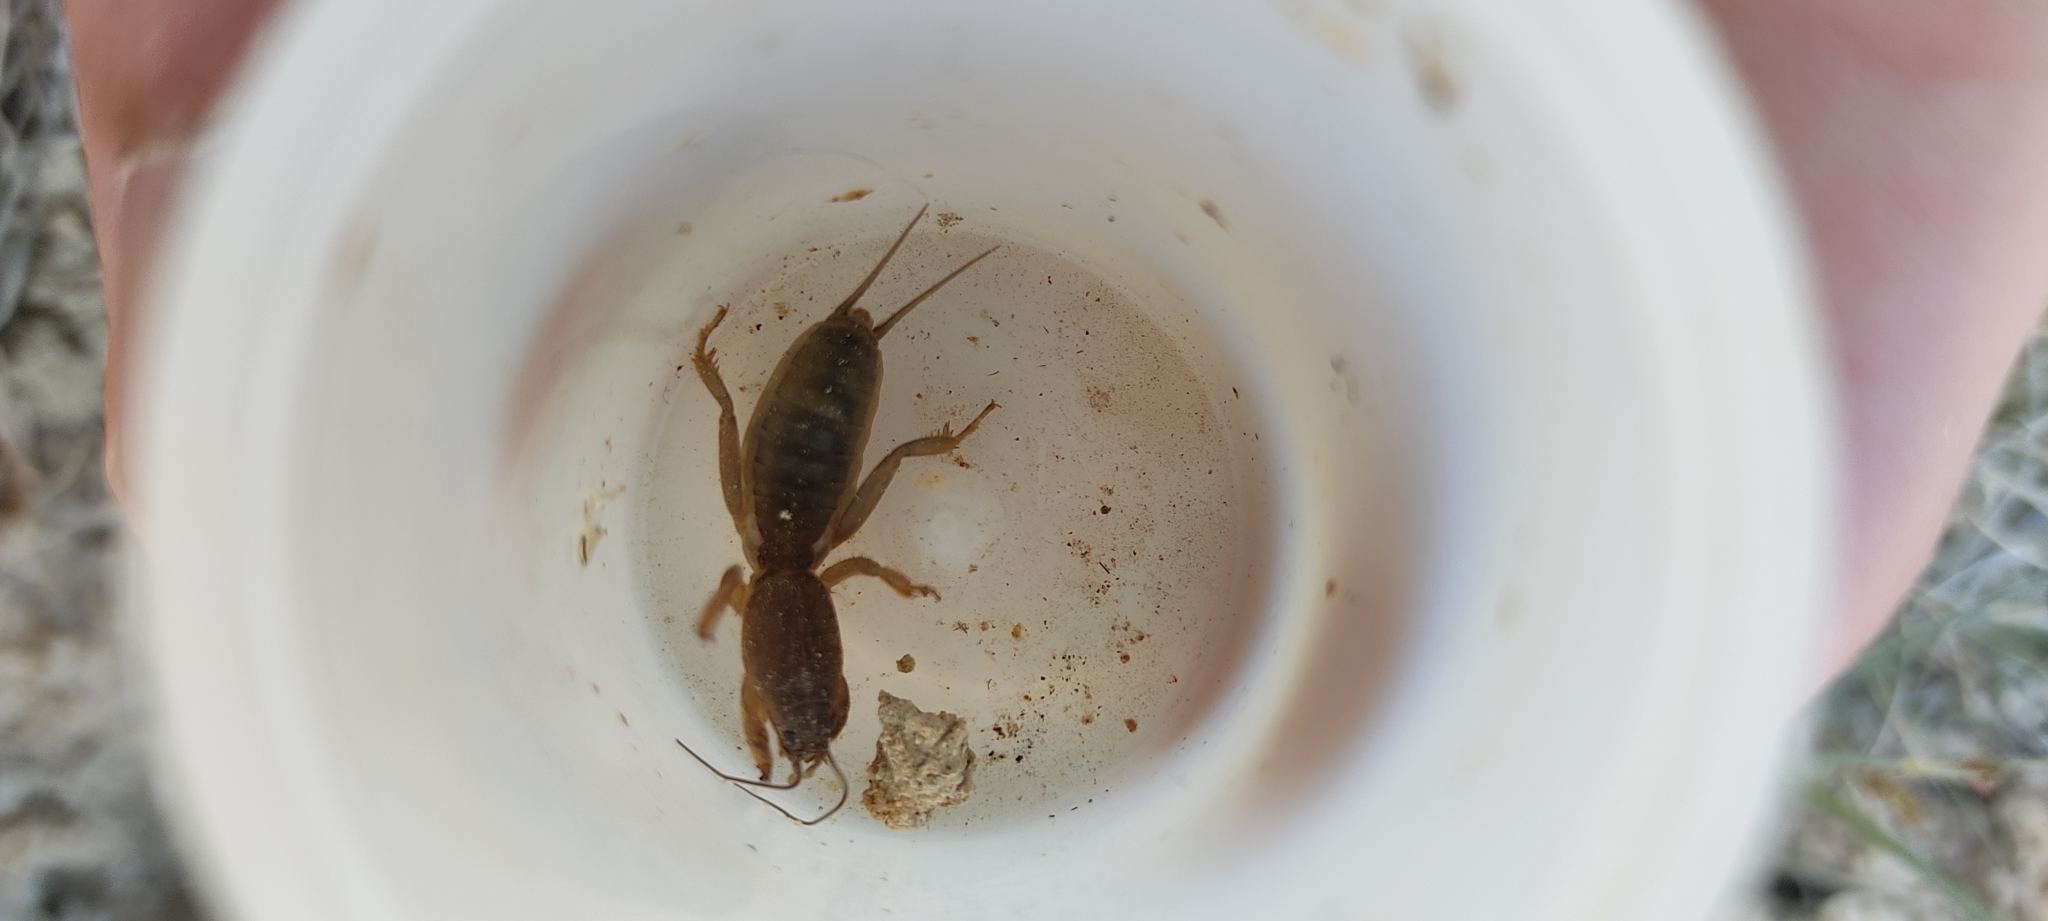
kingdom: Animalia
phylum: Arthropoda
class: Insecta
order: Orthoptera
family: Gryllotalpidae
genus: Gryllotalpa
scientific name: Gryllotalpa
